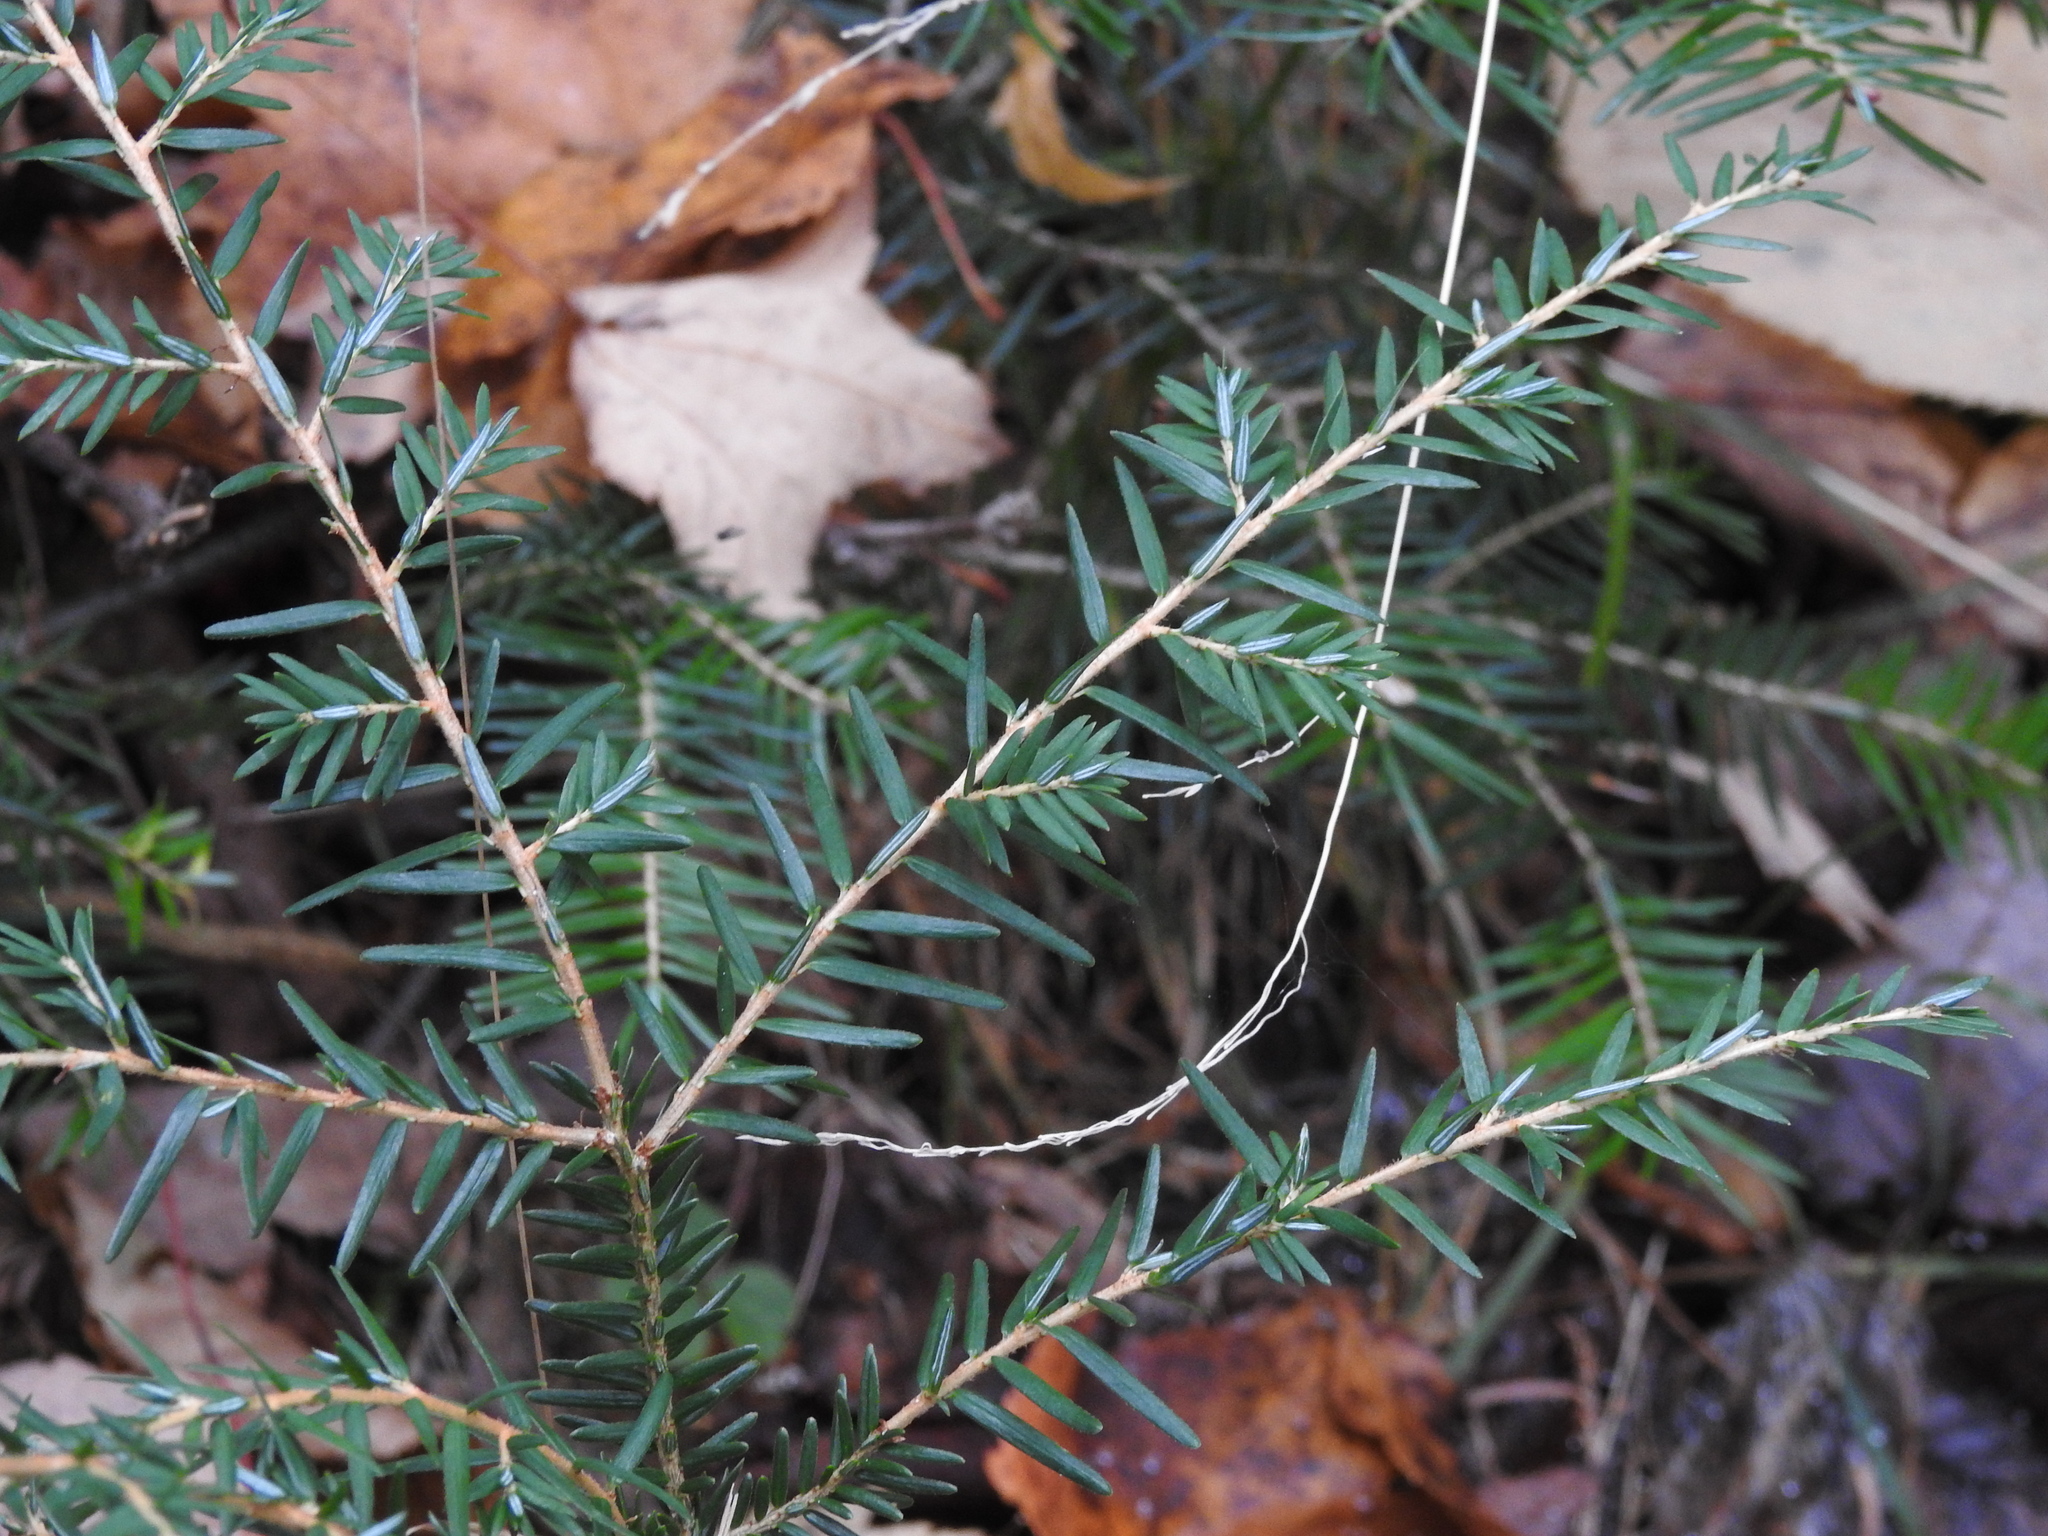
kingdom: Plantae
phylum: Tracheophyta
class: Pinopsida
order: Pinales
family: Pinaceae
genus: Tsuga
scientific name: Tsuga canadensis
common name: Eastern hemlock
